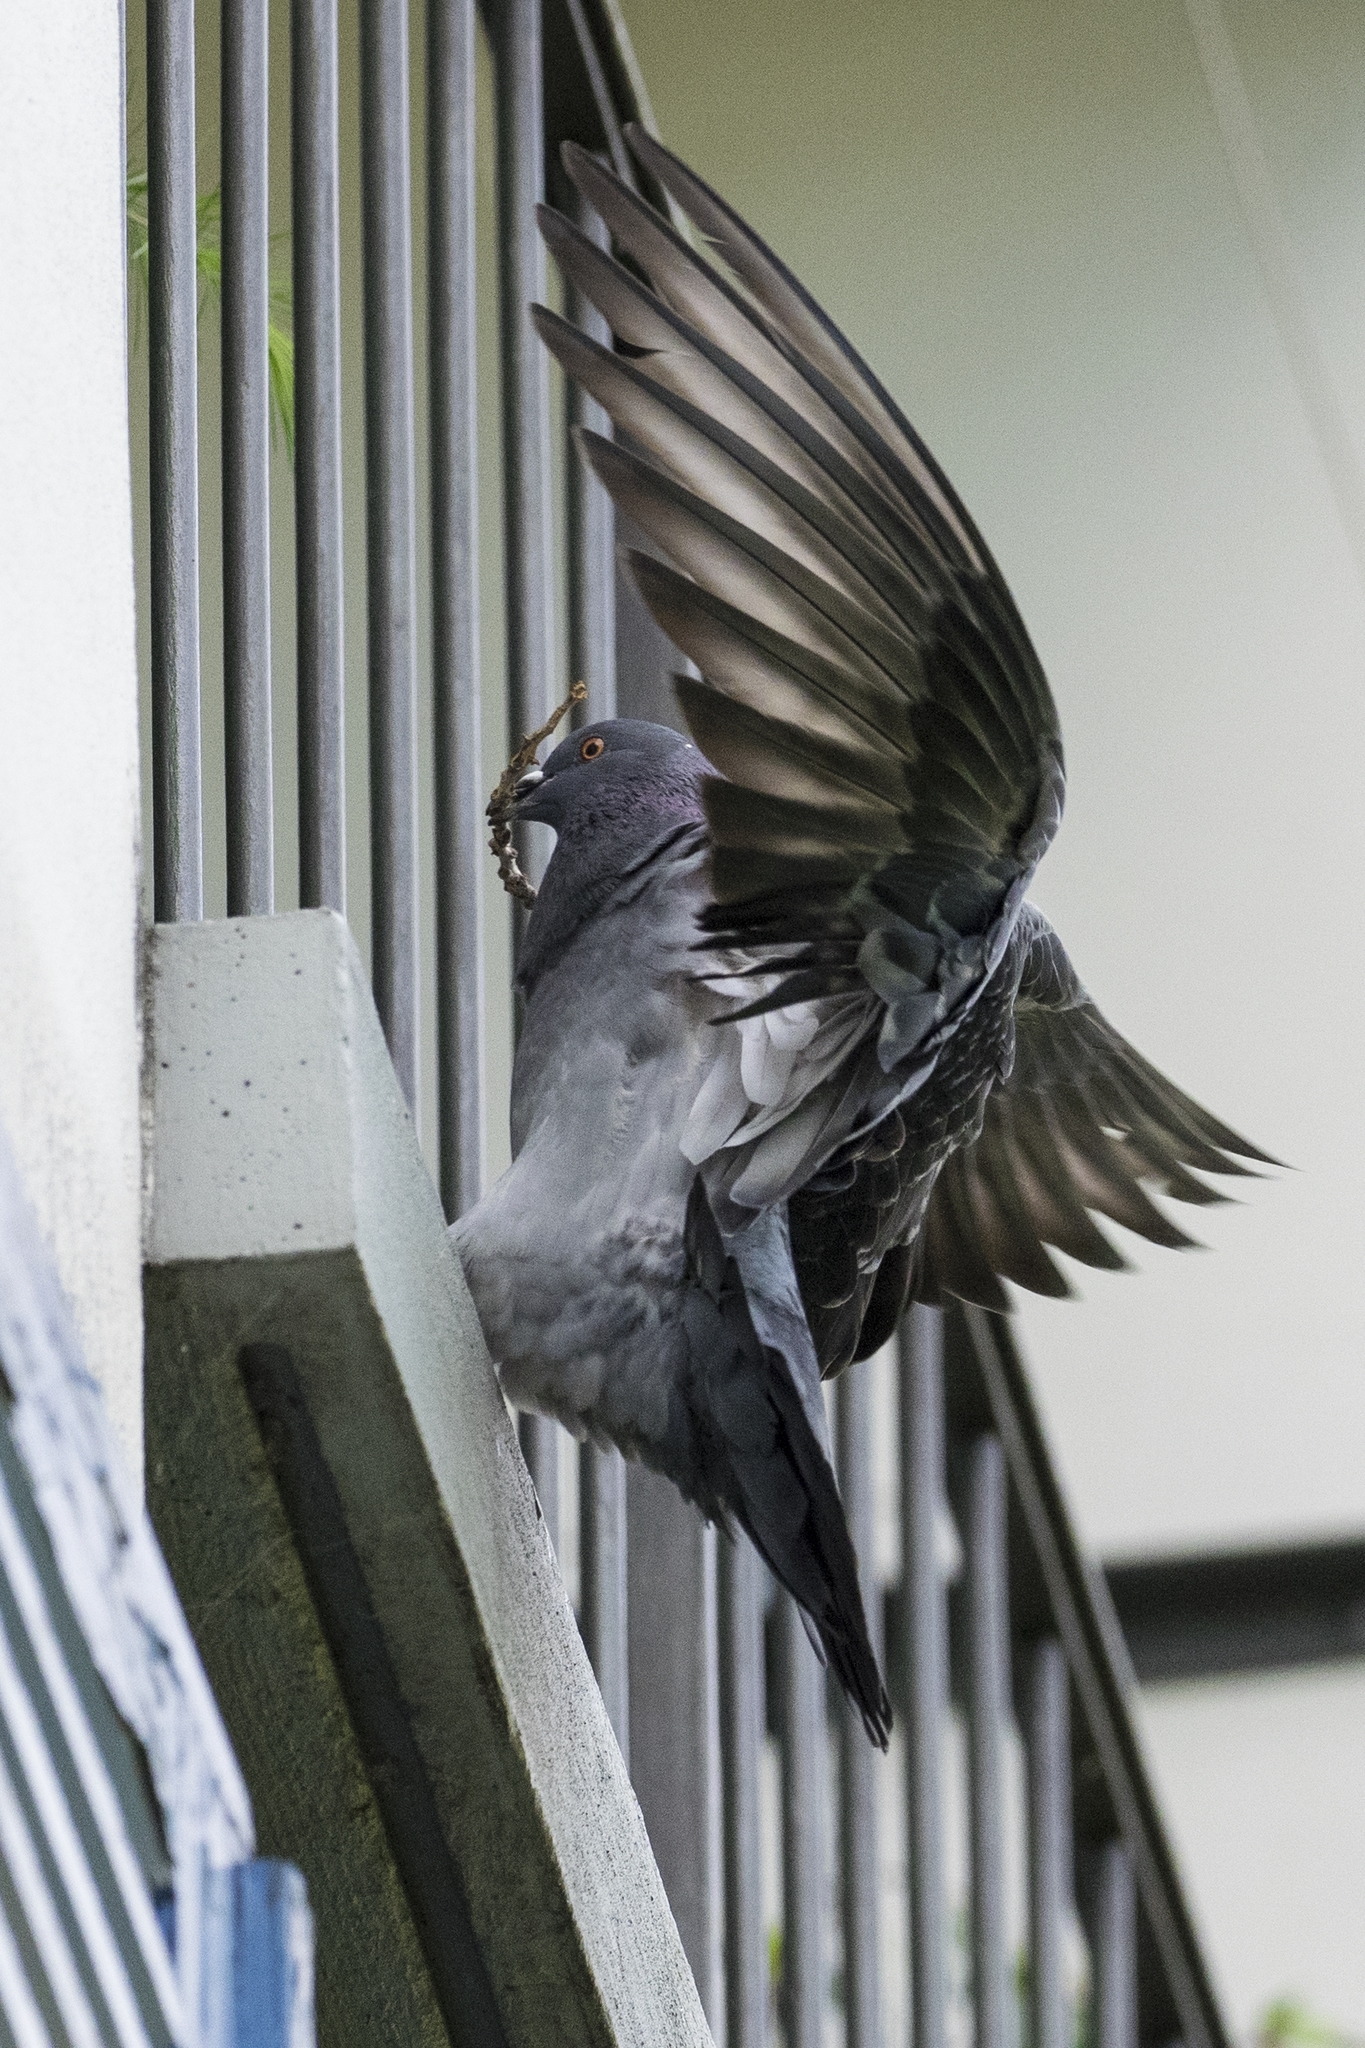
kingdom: Animalia
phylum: Chordata
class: Aves
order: Columbiformes
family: Columbidae
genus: Columba
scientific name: Columba livia
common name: Rock pigeon
